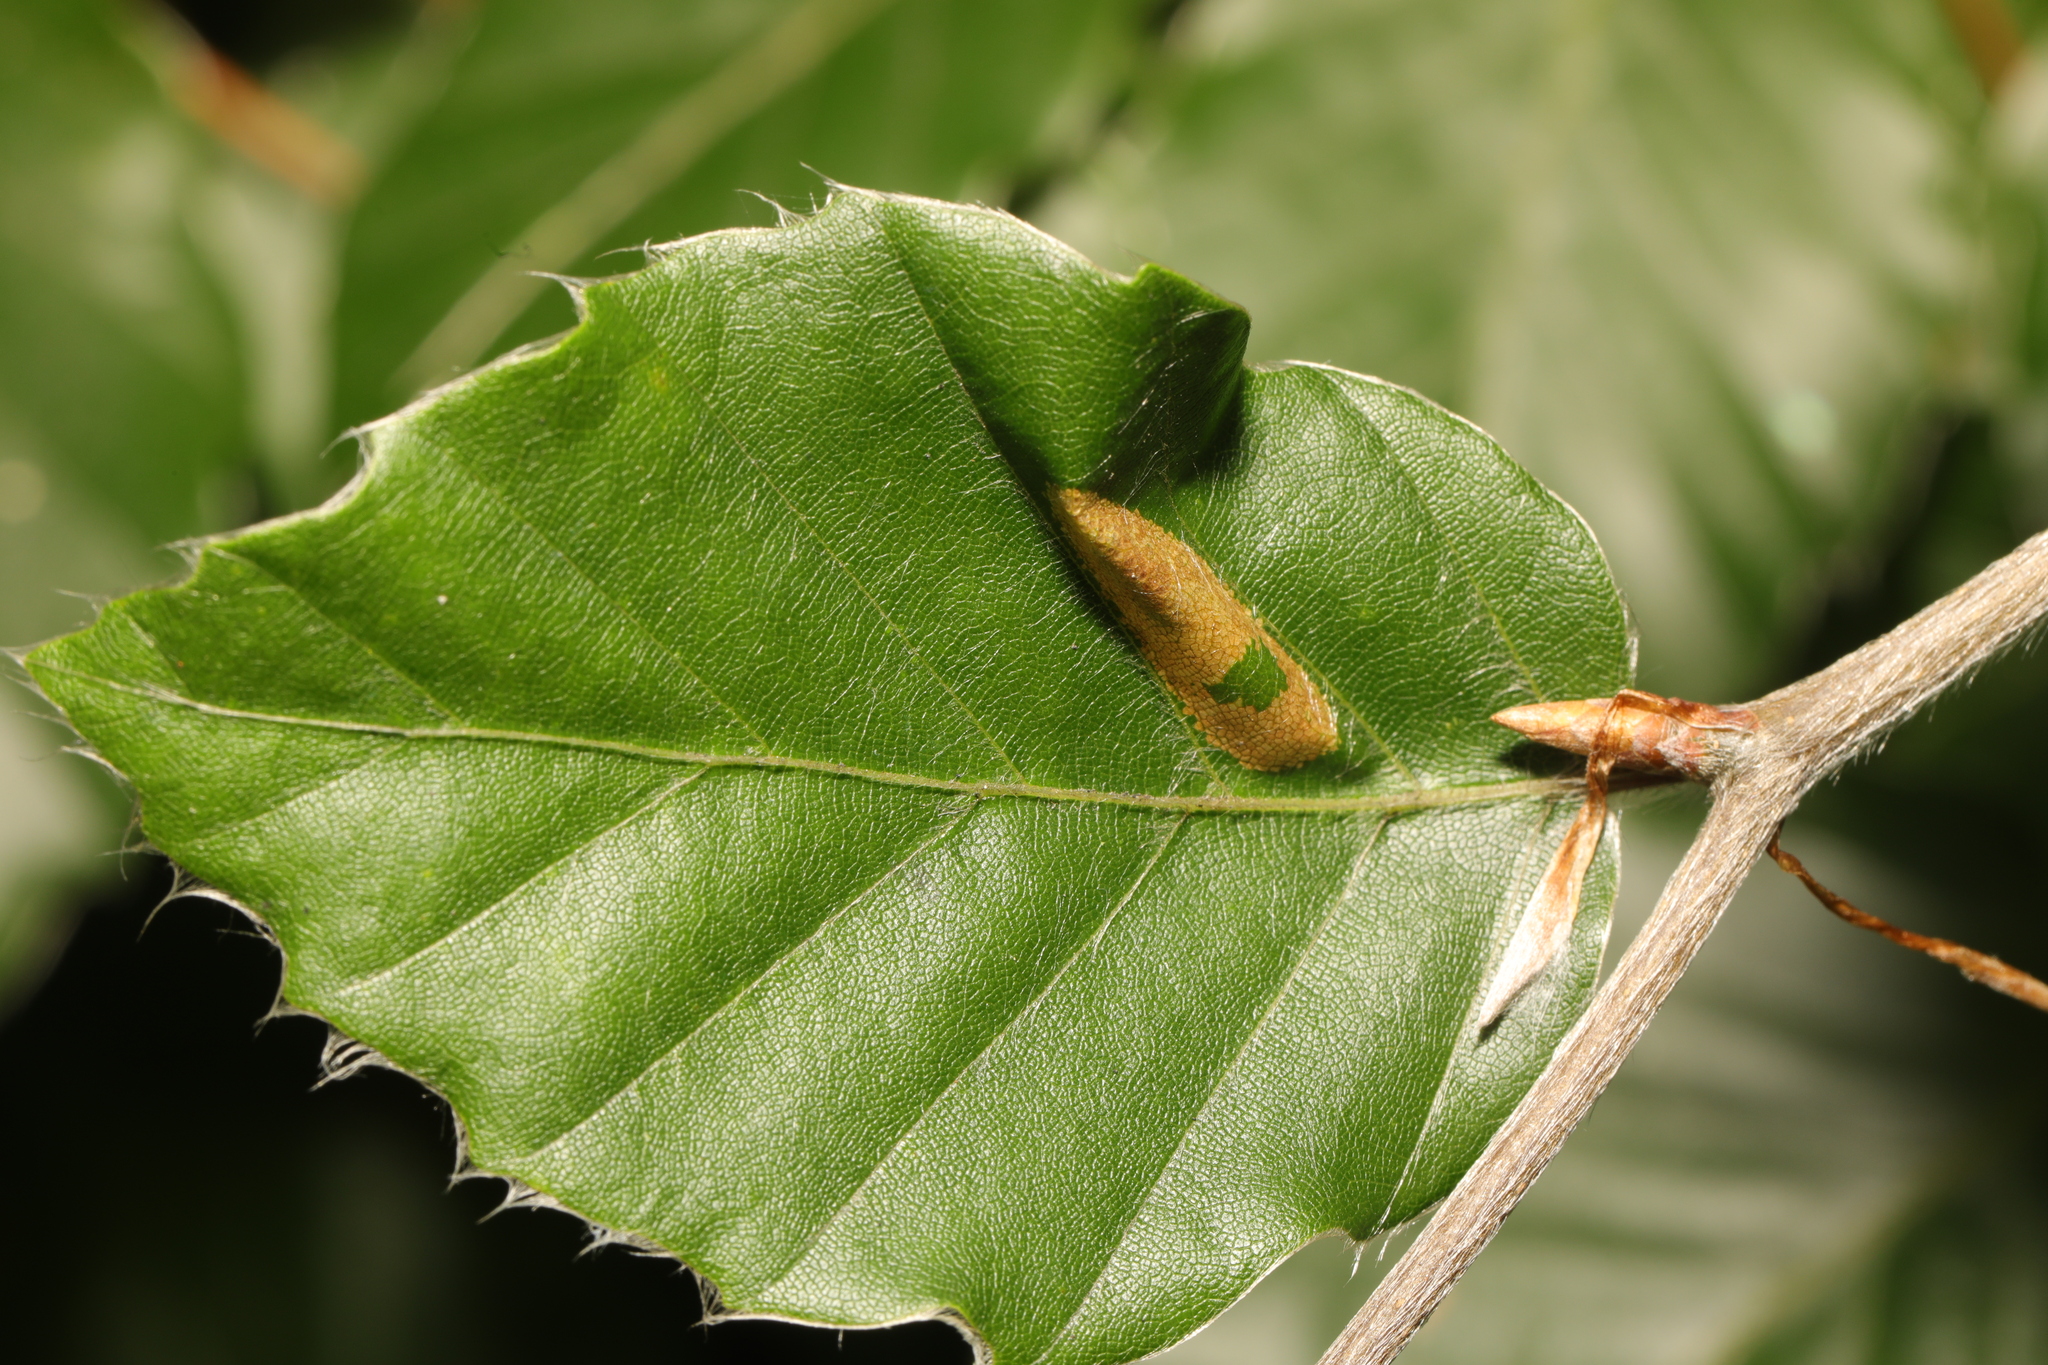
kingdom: Animalia
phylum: Arthropoda
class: Insecta
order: Lepidoptera
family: Gracillariidae
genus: Phyllonorycter
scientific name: Phyllonorycter maestingella
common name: Beech midget
